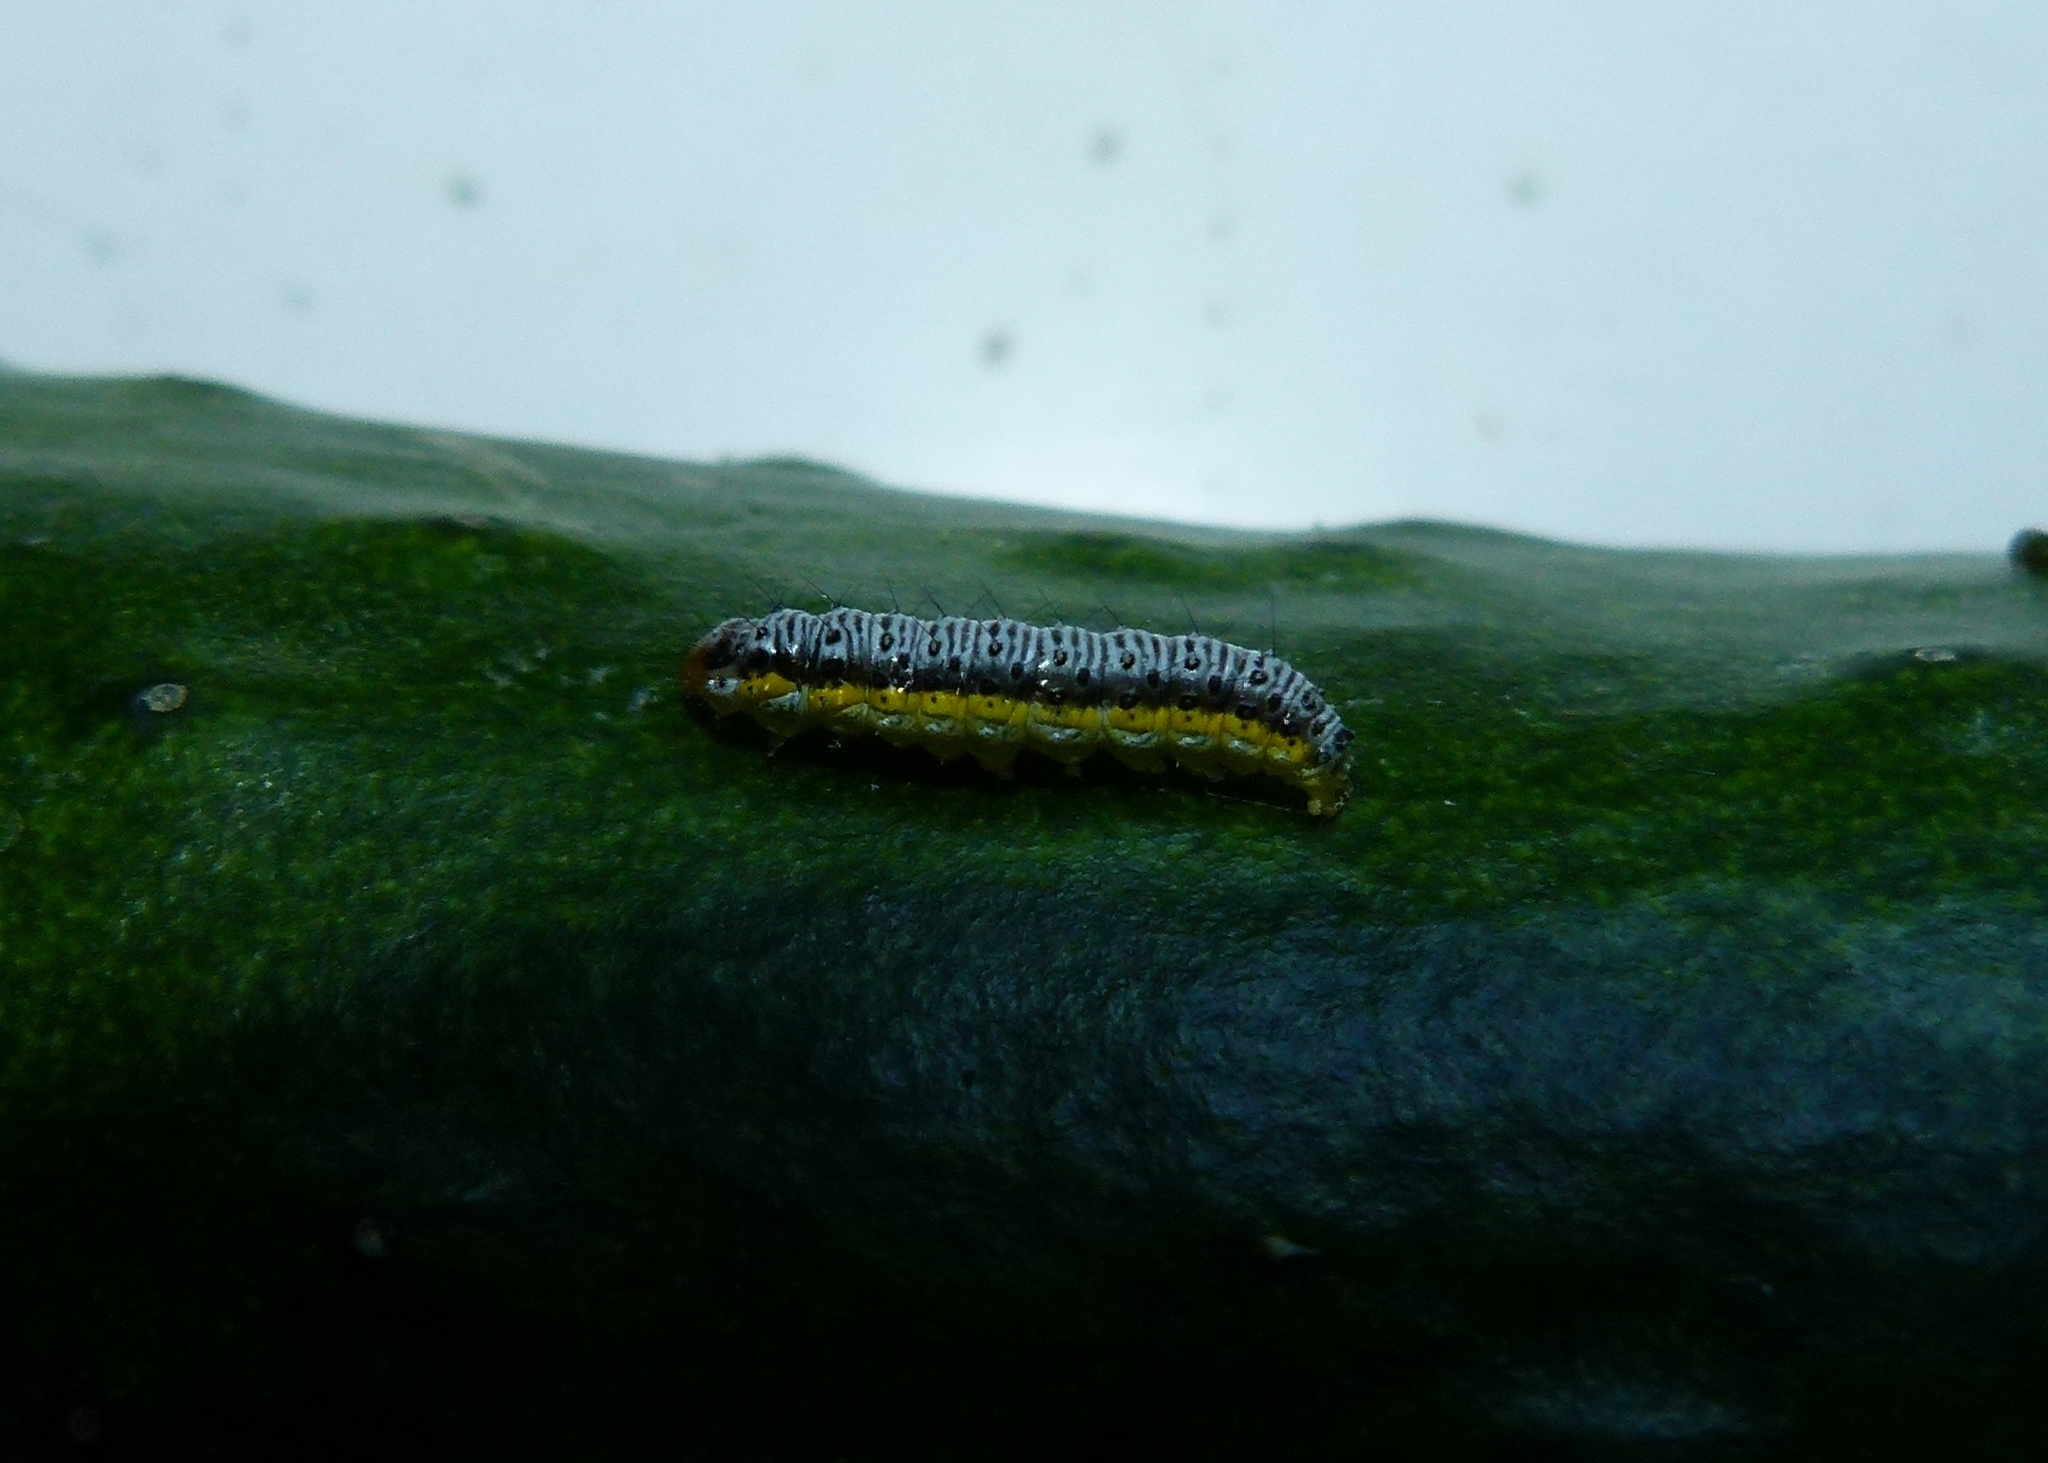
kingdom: Animalia
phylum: Arthropoda
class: Insecta
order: Lepidoptera
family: Crambidae
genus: Evergestis
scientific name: Evergestis rimosalis
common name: Cross-striped cabbageworm moth
